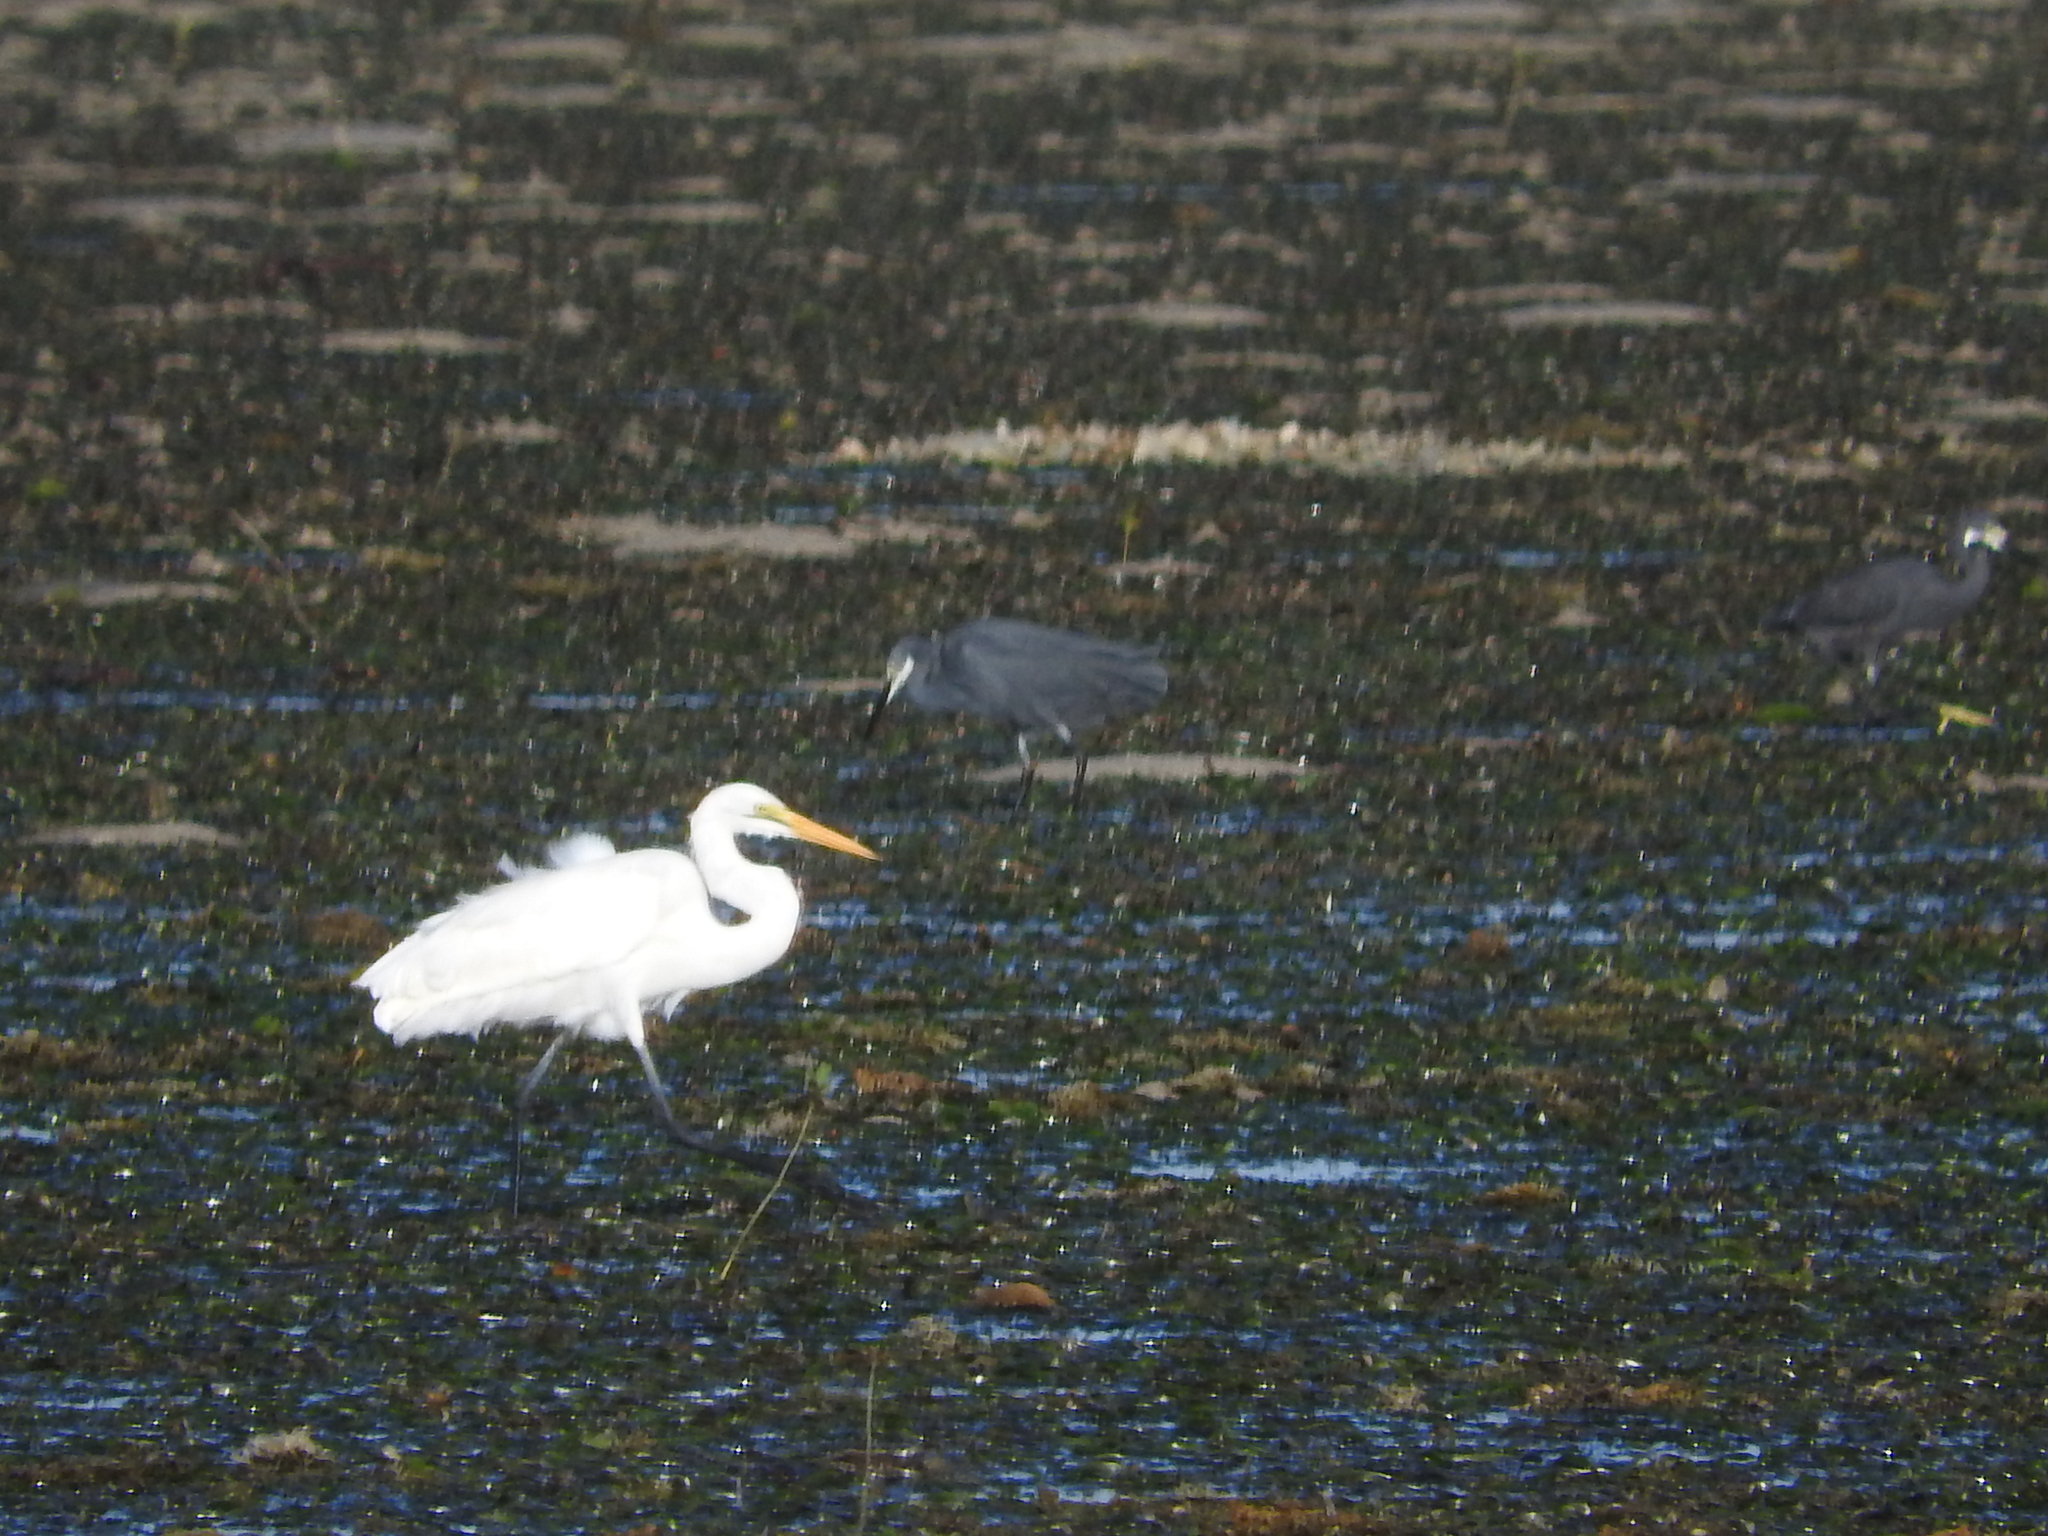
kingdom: Animalia
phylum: Chordata
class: Aves
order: Pelecaniformes
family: Ardeidae
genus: Ardea
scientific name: Ardea alba
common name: Great egret
